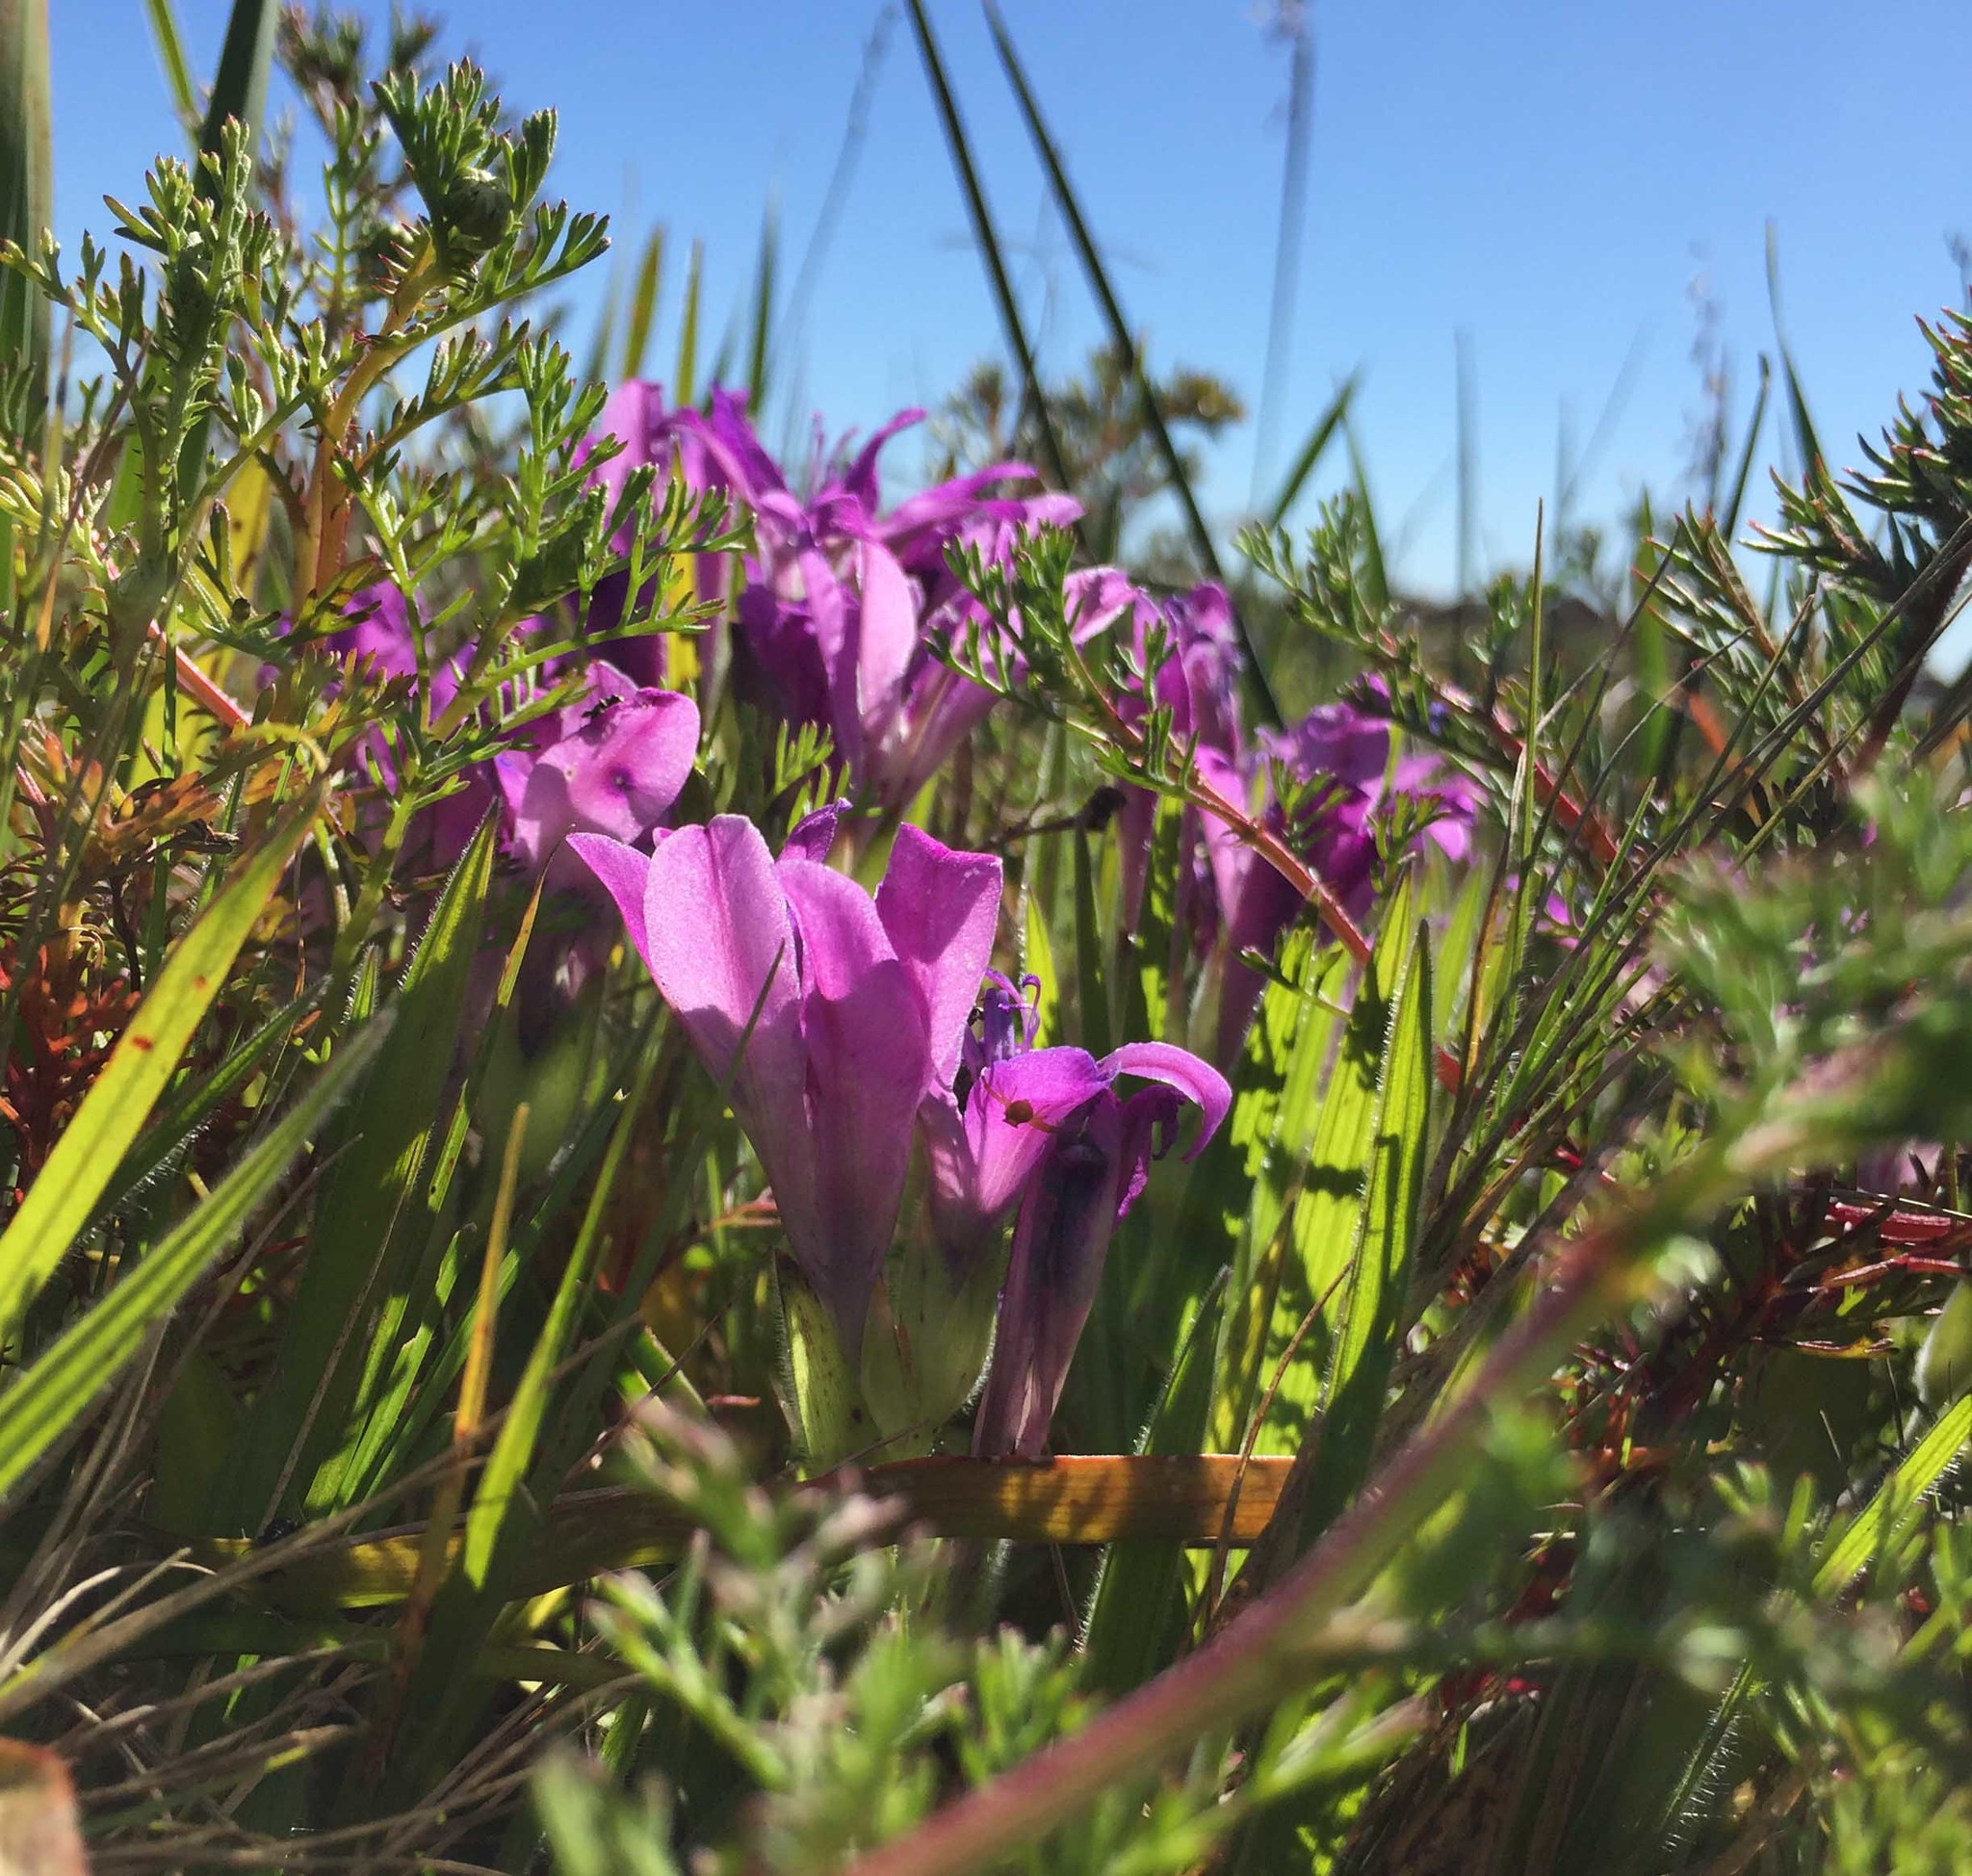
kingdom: Plantae
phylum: Tracheophyta
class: Liliopsida
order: Asparagales
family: Iridaceae
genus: Babiana
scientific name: Babiana ambigua
